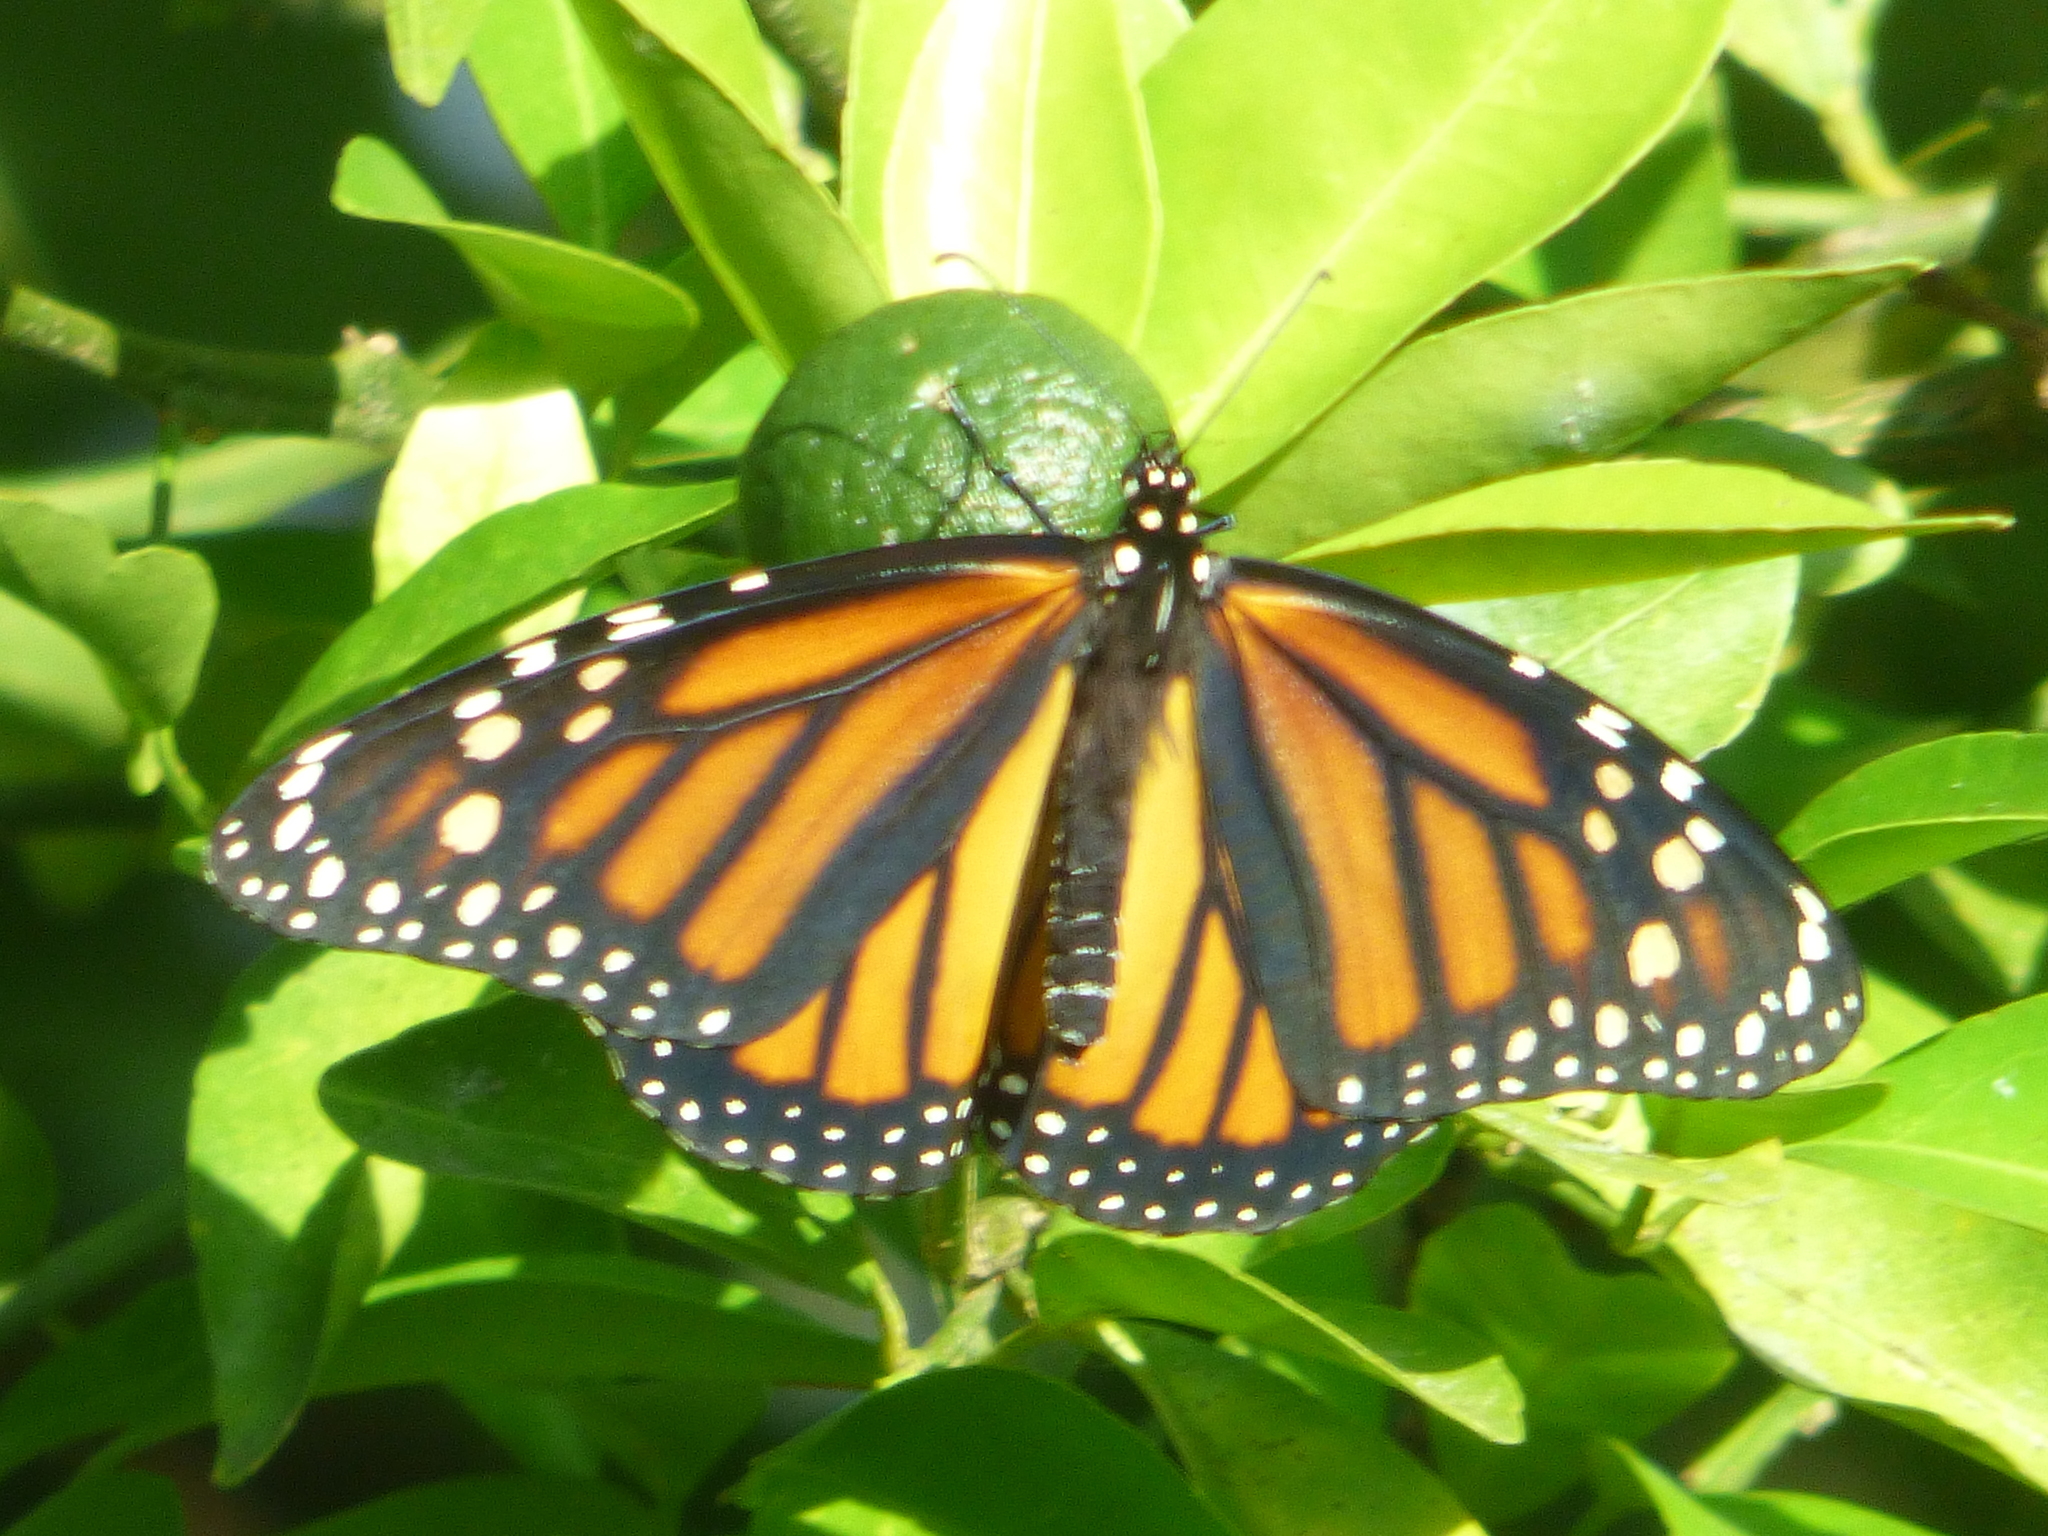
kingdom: Animalia
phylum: Arthropoda
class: Insecta
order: Lepidoptera
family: Nymphalidae
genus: Danaus
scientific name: Danaus plexippus
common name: Monarch
